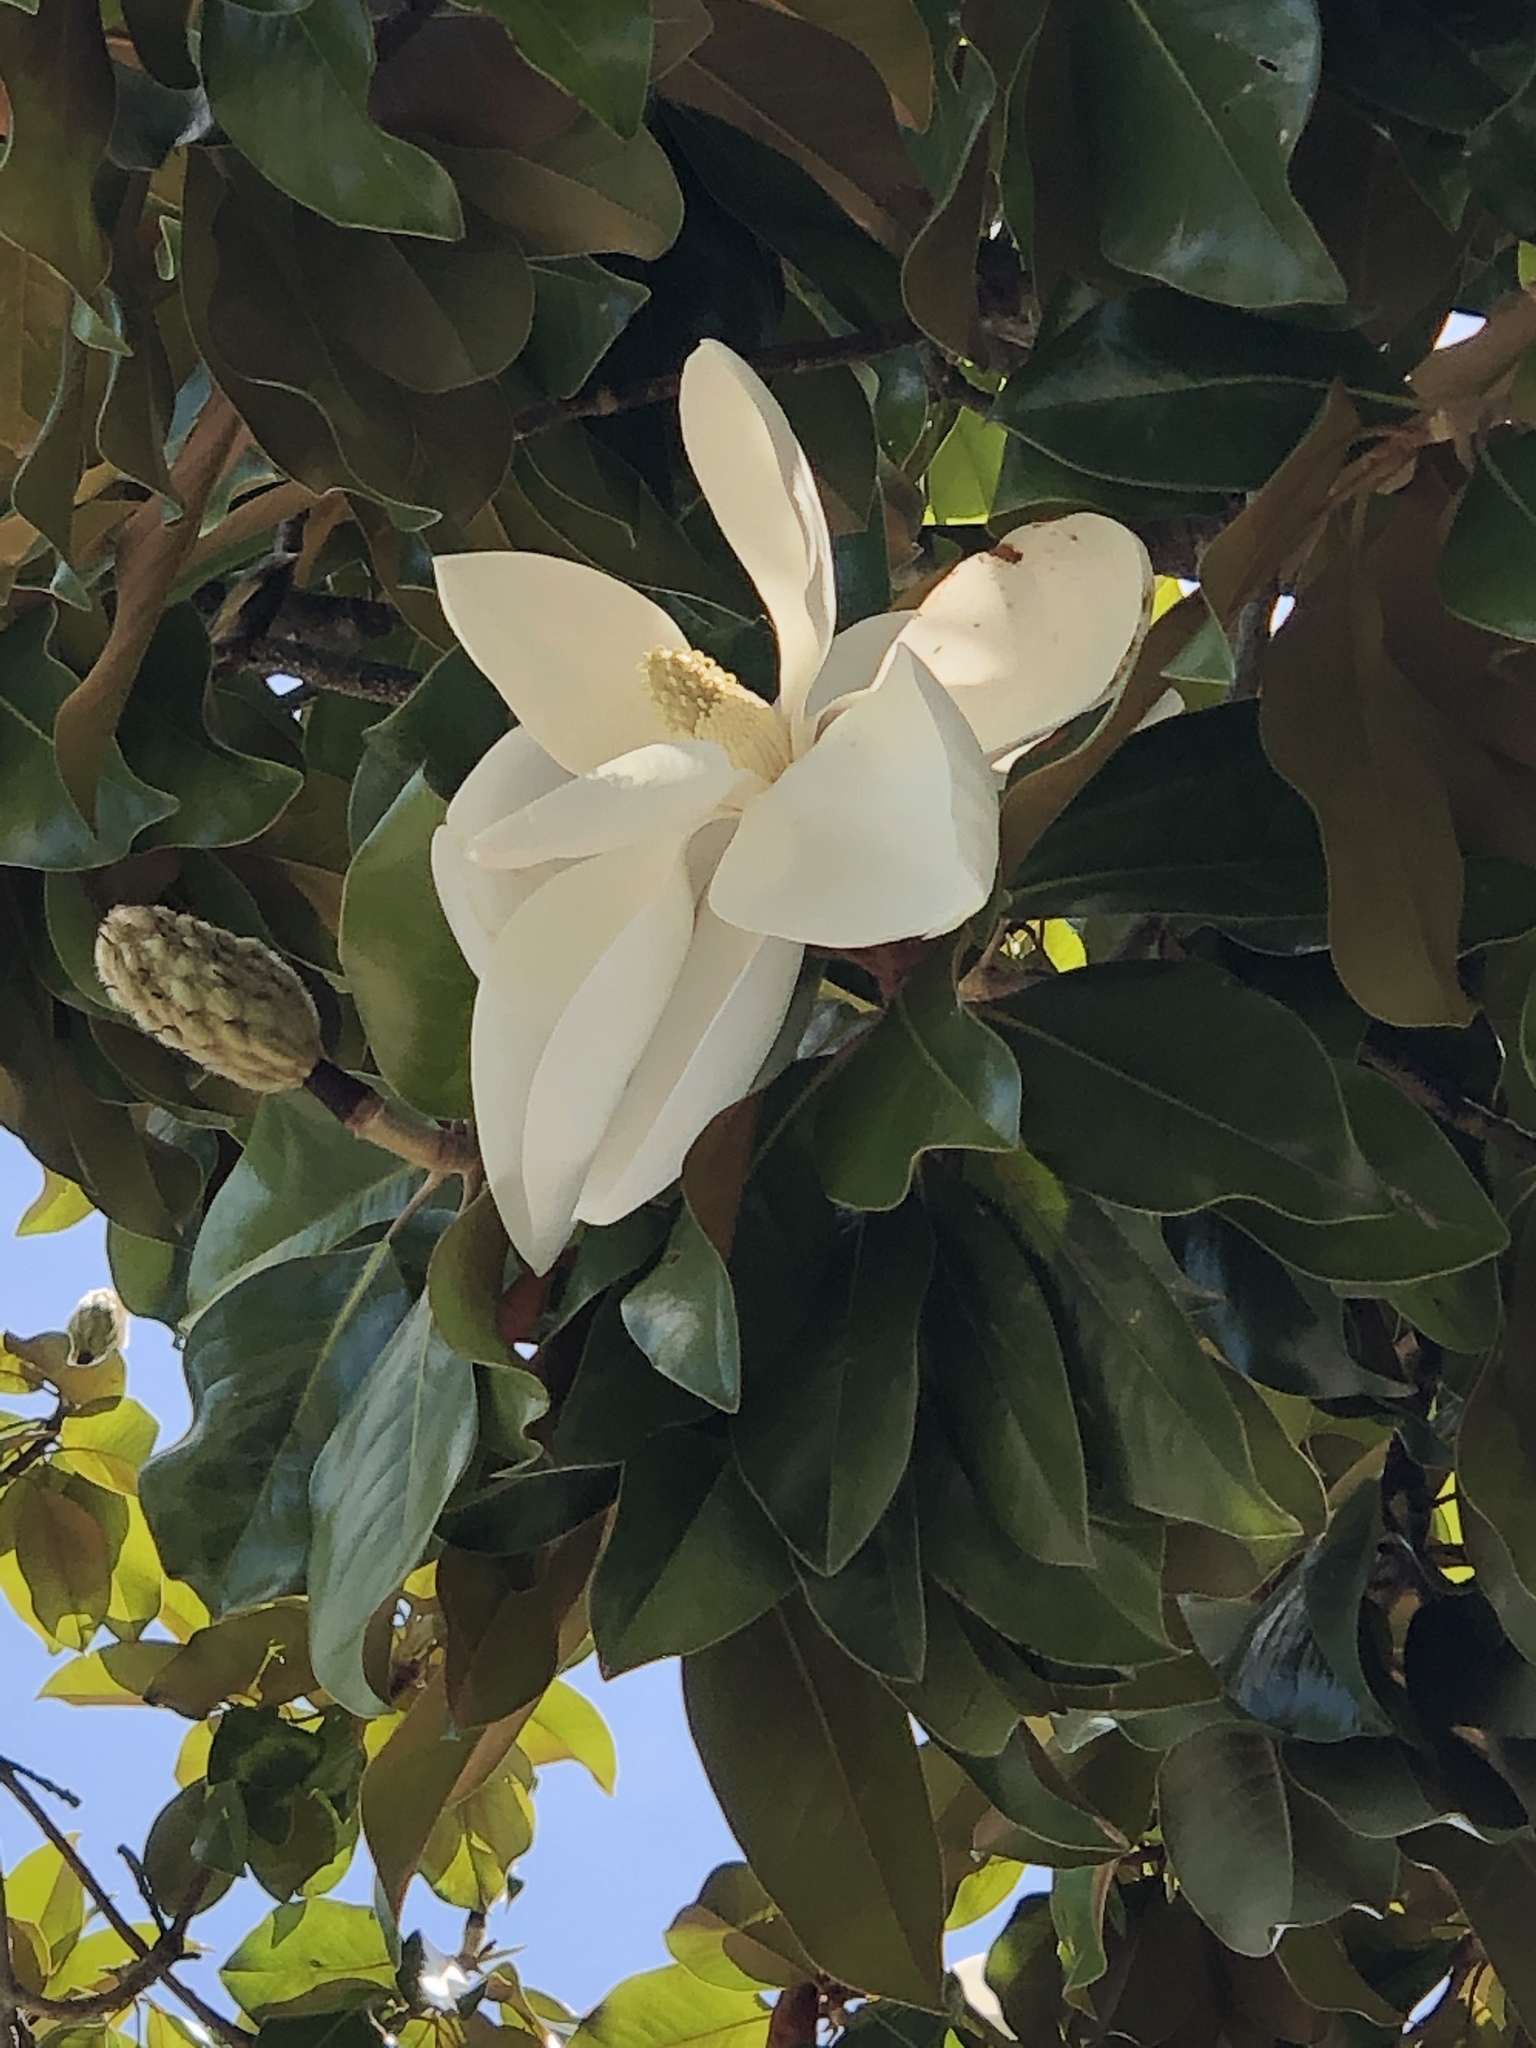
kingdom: Plantae
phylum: Tracheophyta
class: Magnoliopsida
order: Magnoliales
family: Magnoliaceae
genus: Magnolia
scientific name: Magnolia grandiflora
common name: Southern magnolia
